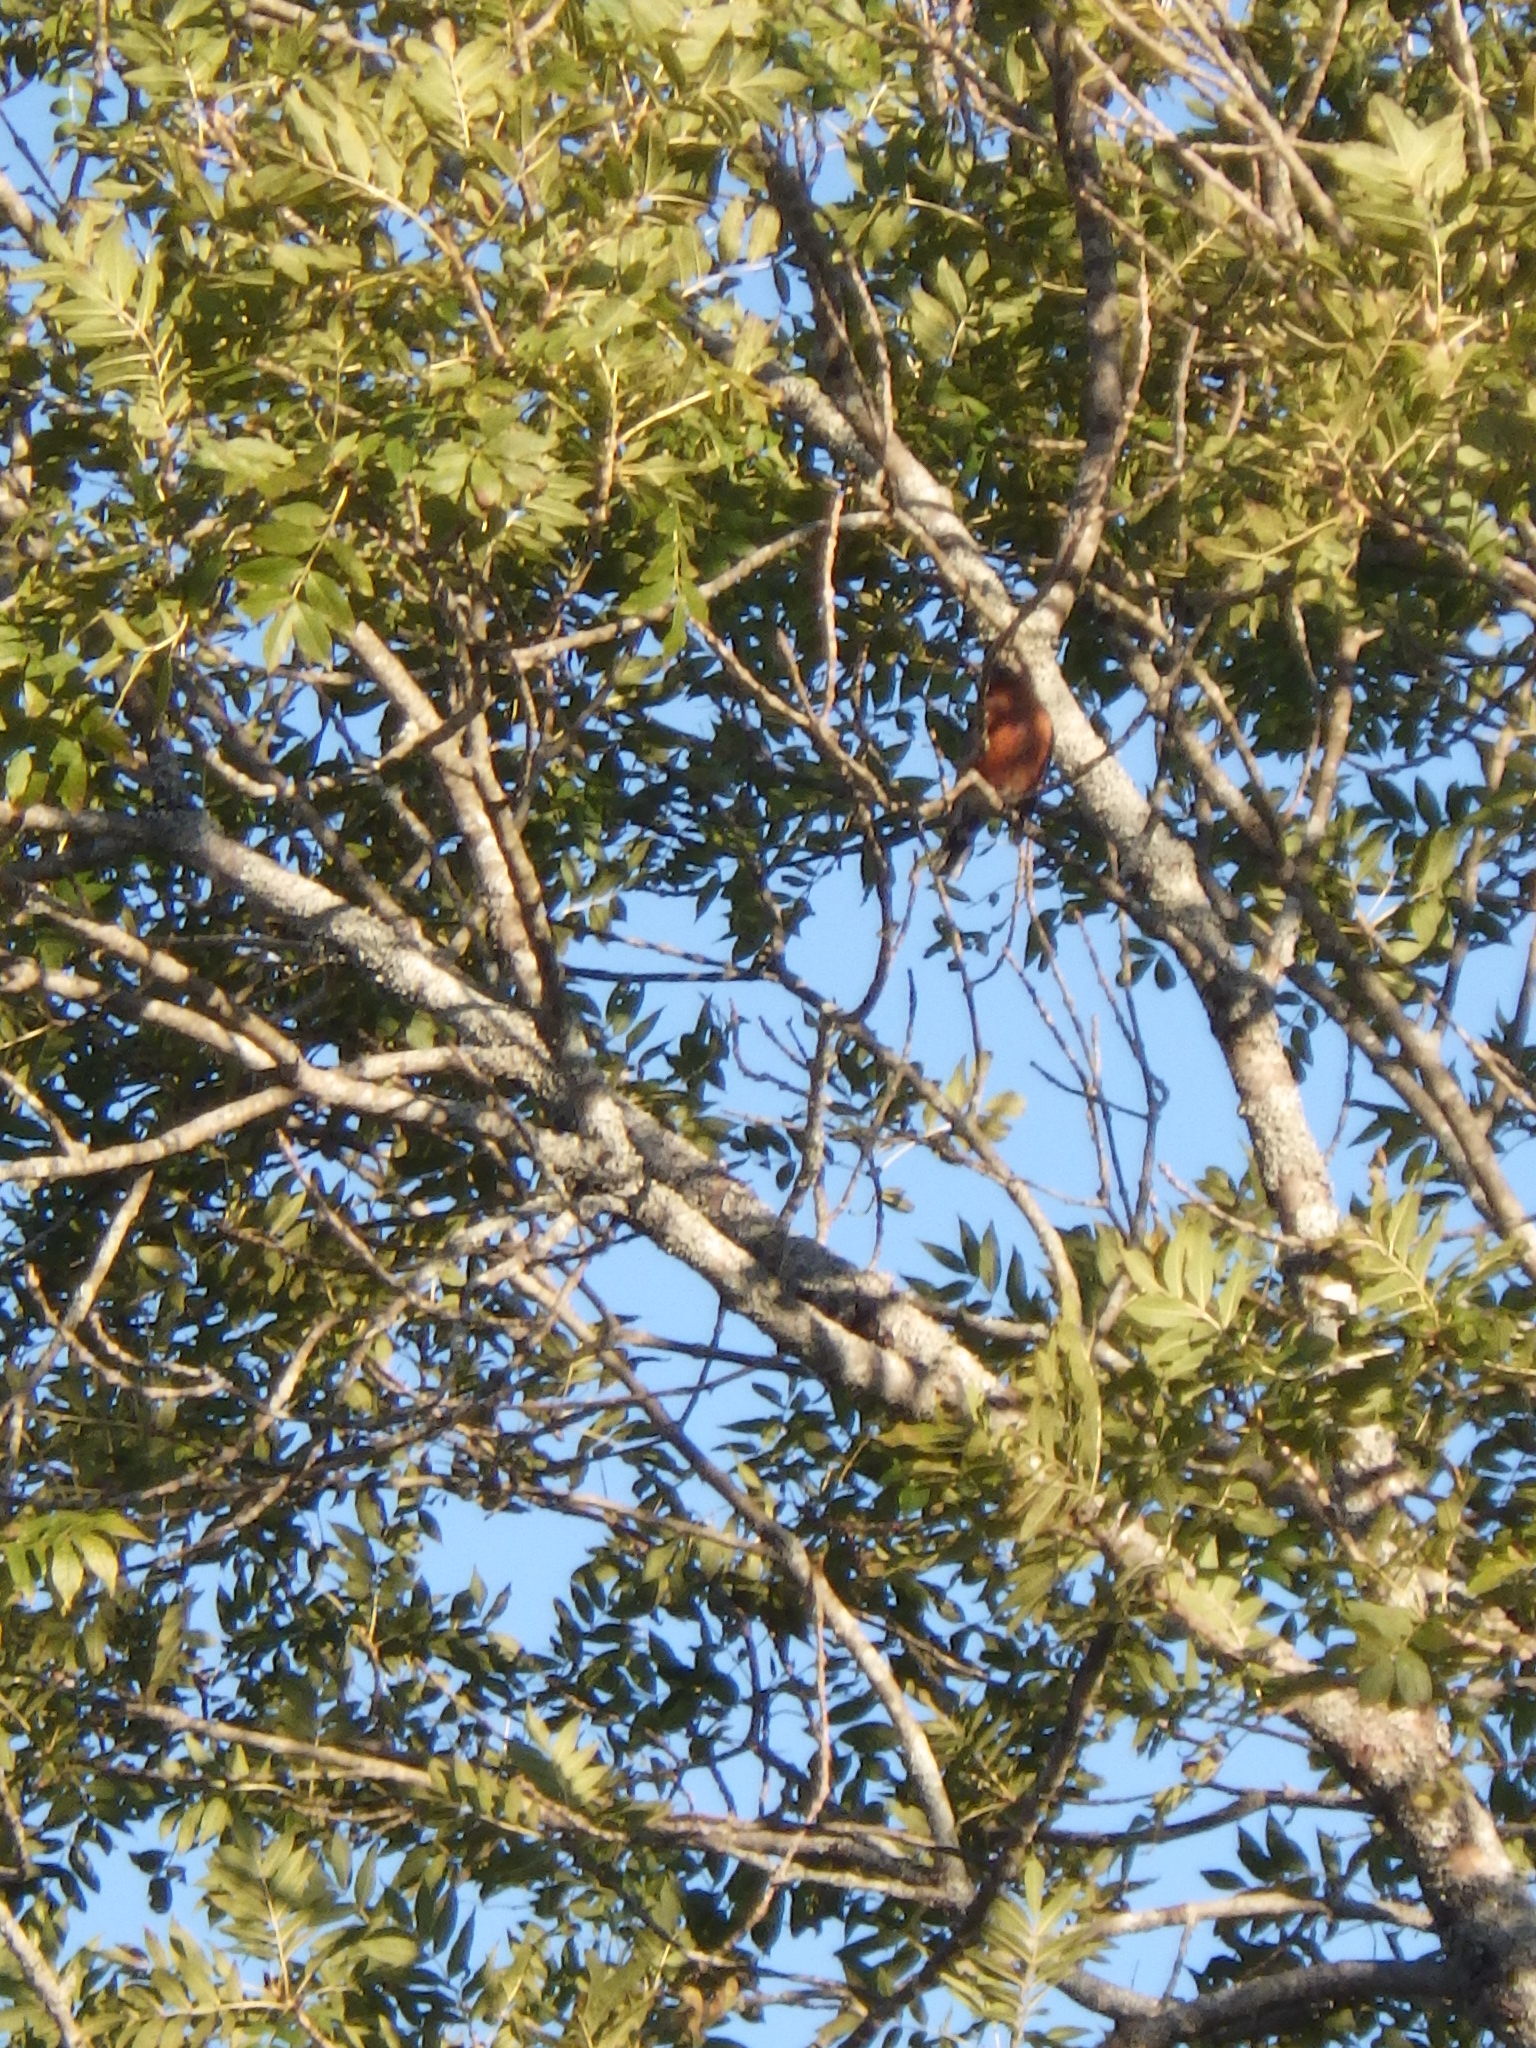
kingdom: Animalia
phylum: Chordata
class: Aves
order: Passeriformes
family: Turdidae
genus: Turdus
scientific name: Turdus migratorius
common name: American robin
